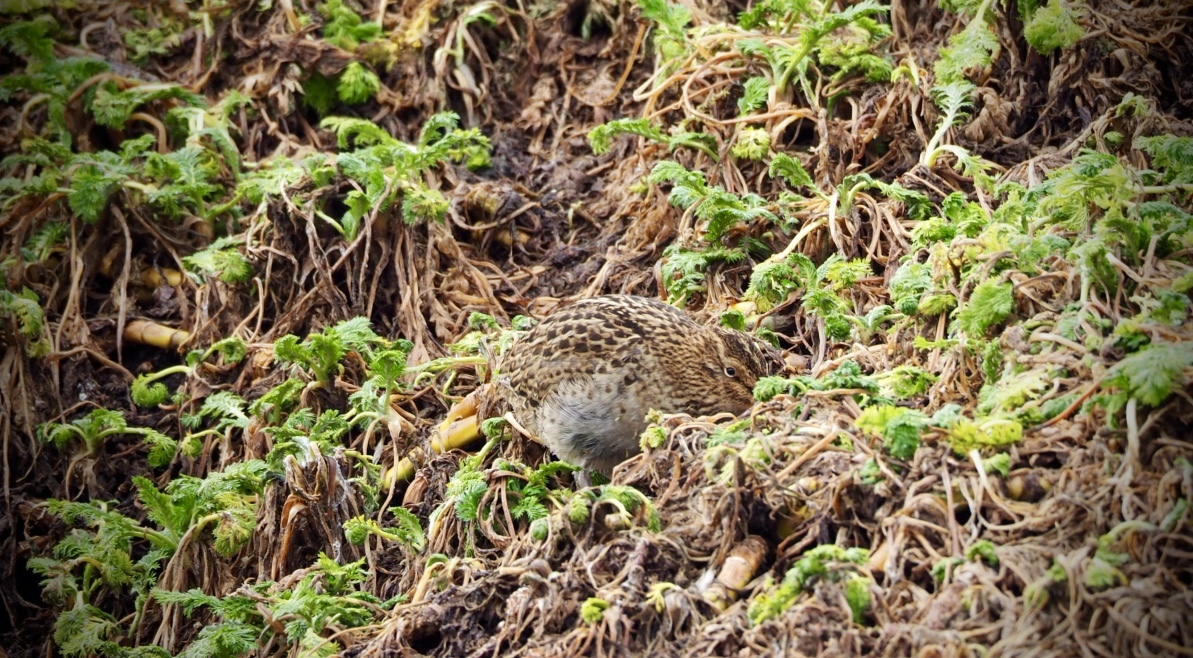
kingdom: Animalia
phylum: Chordata
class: Aves
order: Charadriiformes
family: Scolopacidae
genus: Coenocorypha
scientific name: Coenocorypha aucklandica
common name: Subantarctic snipe
